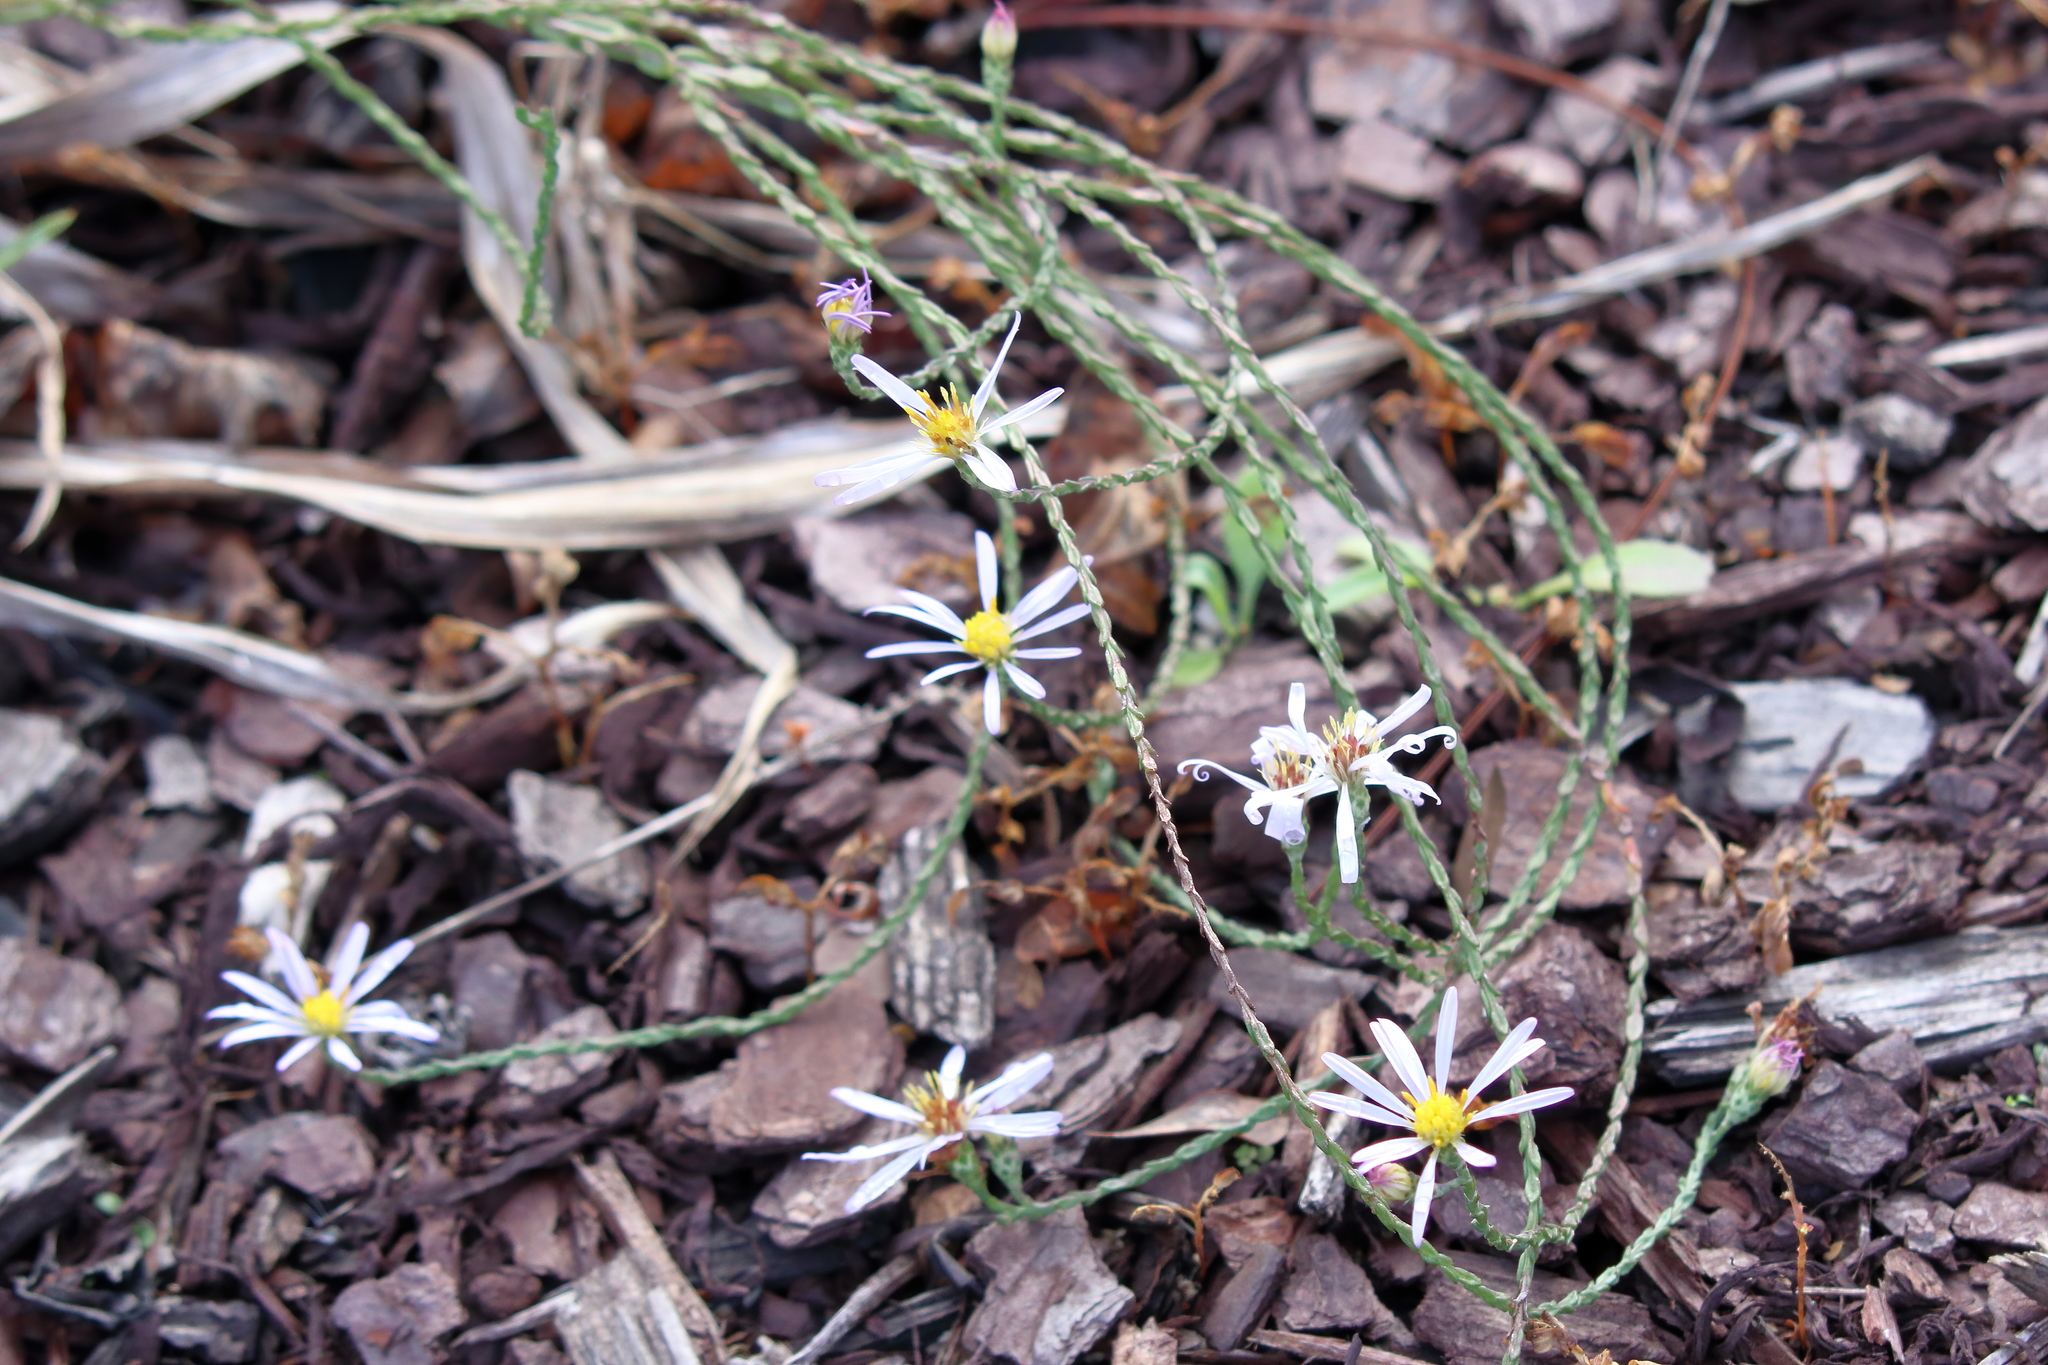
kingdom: Plantae
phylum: Tracheophyta
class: Magnoliopsida
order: Asterales
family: Asteraceae
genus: Symphyotrichum
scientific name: Symphyotrichum adnatum
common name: Scale-leaf aster
